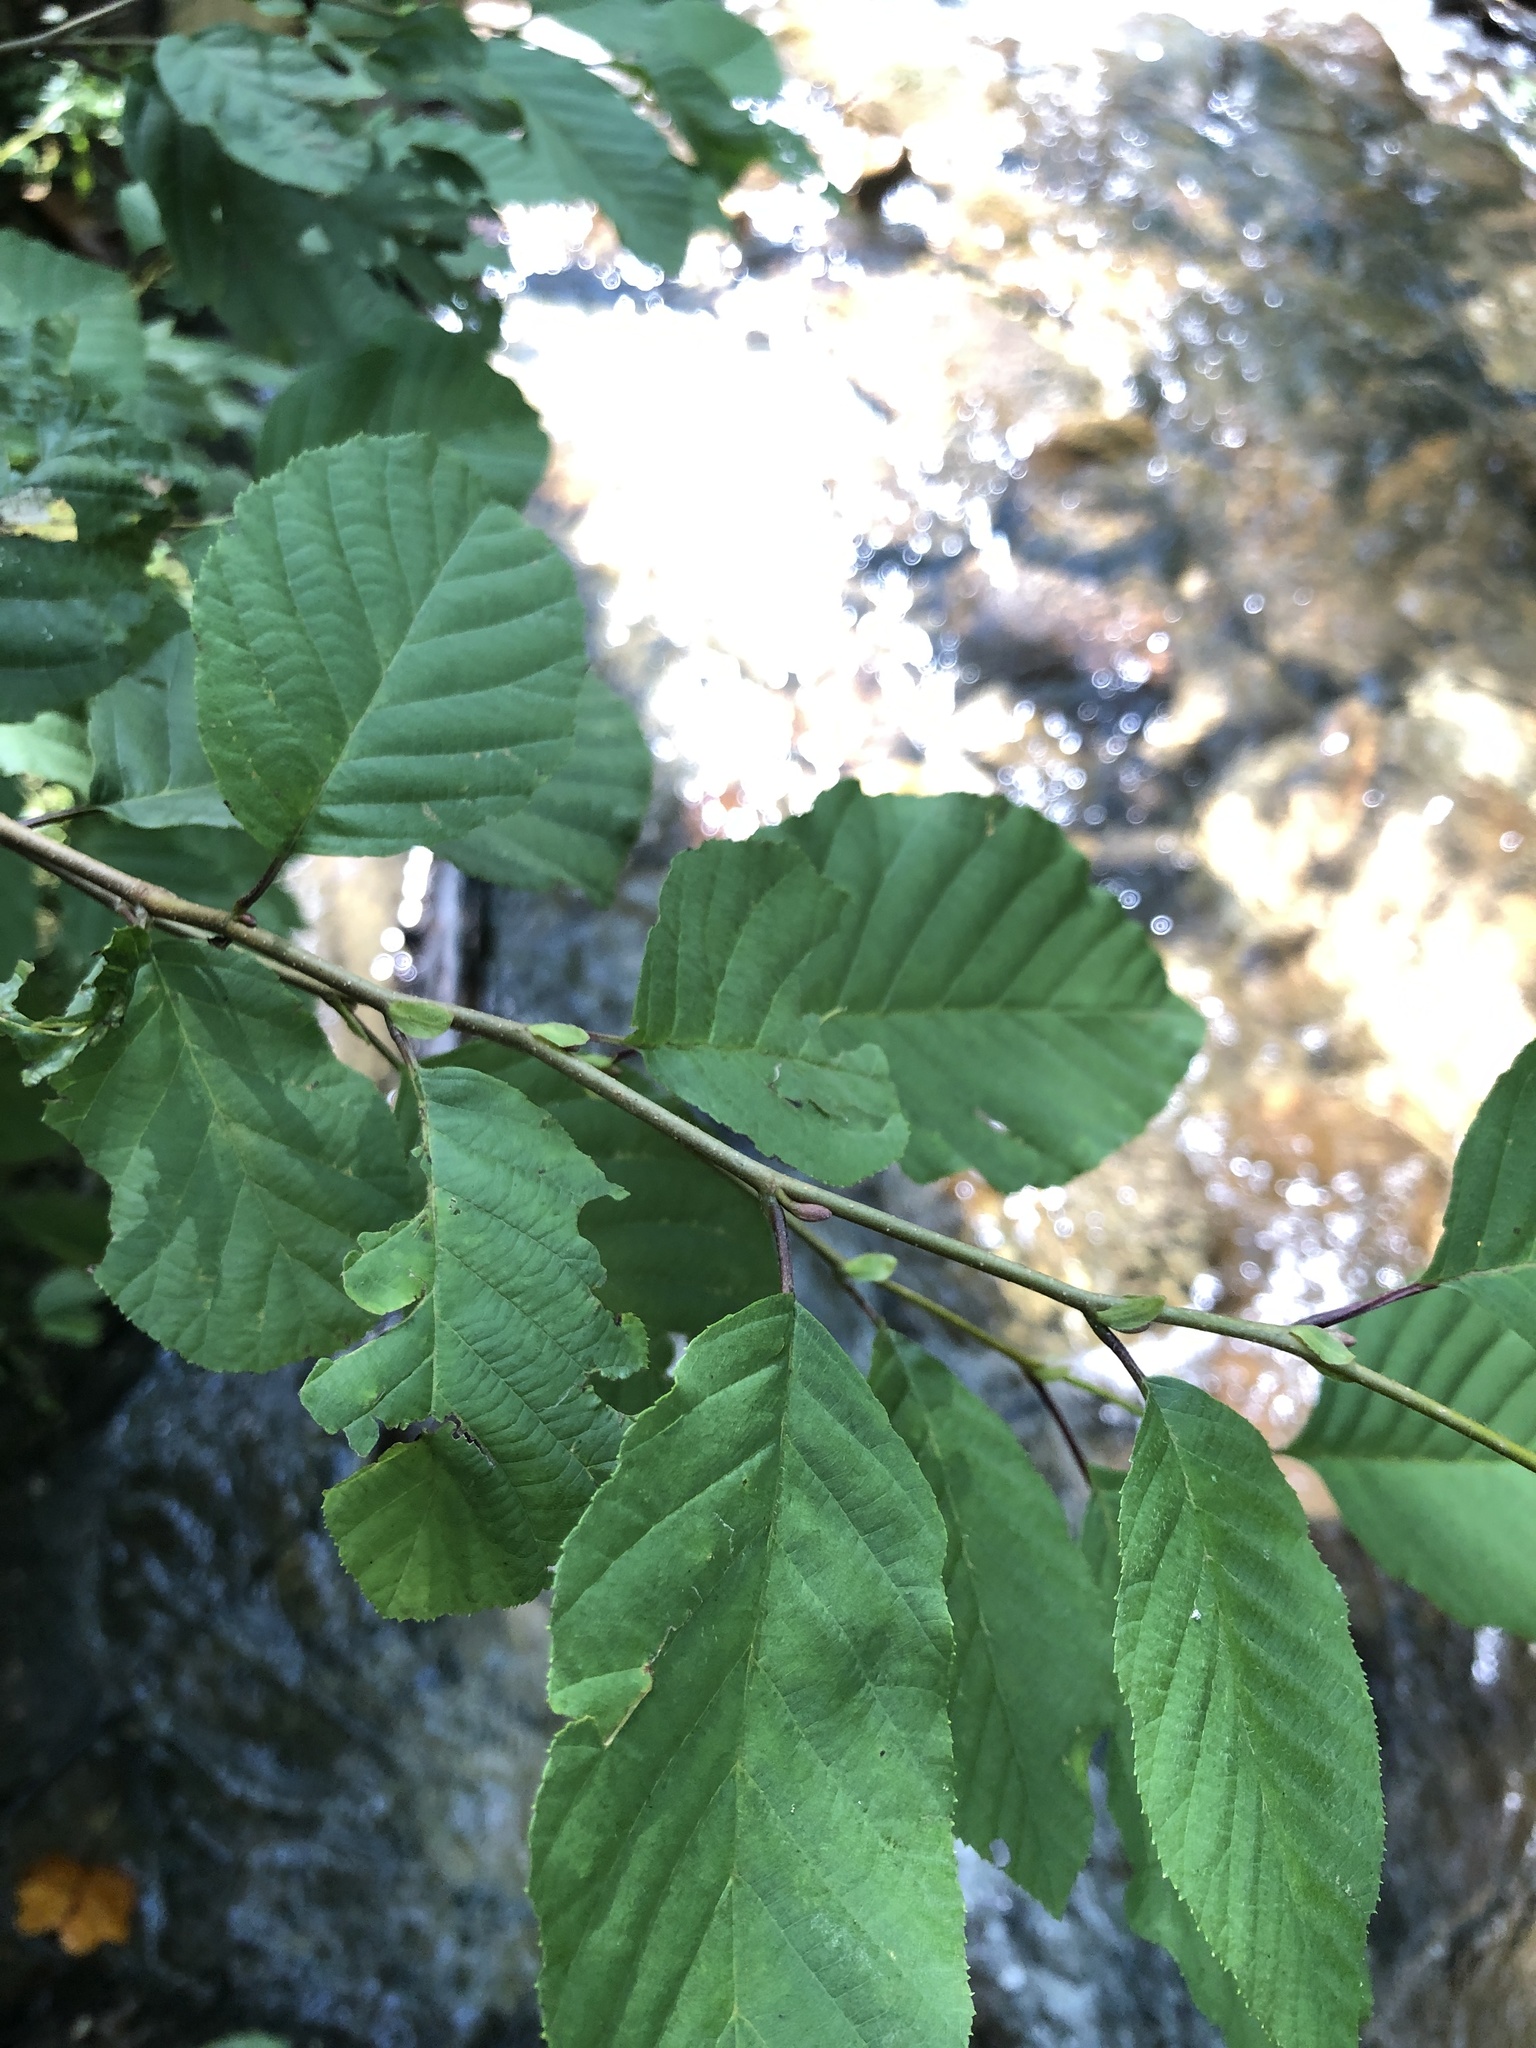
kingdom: Plantae
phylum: Tracheophyta
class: Magnoliopsida
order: Fagales
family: Betulaceae
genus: Alnus
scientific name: Alnus serrulata
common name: Hazel alder
